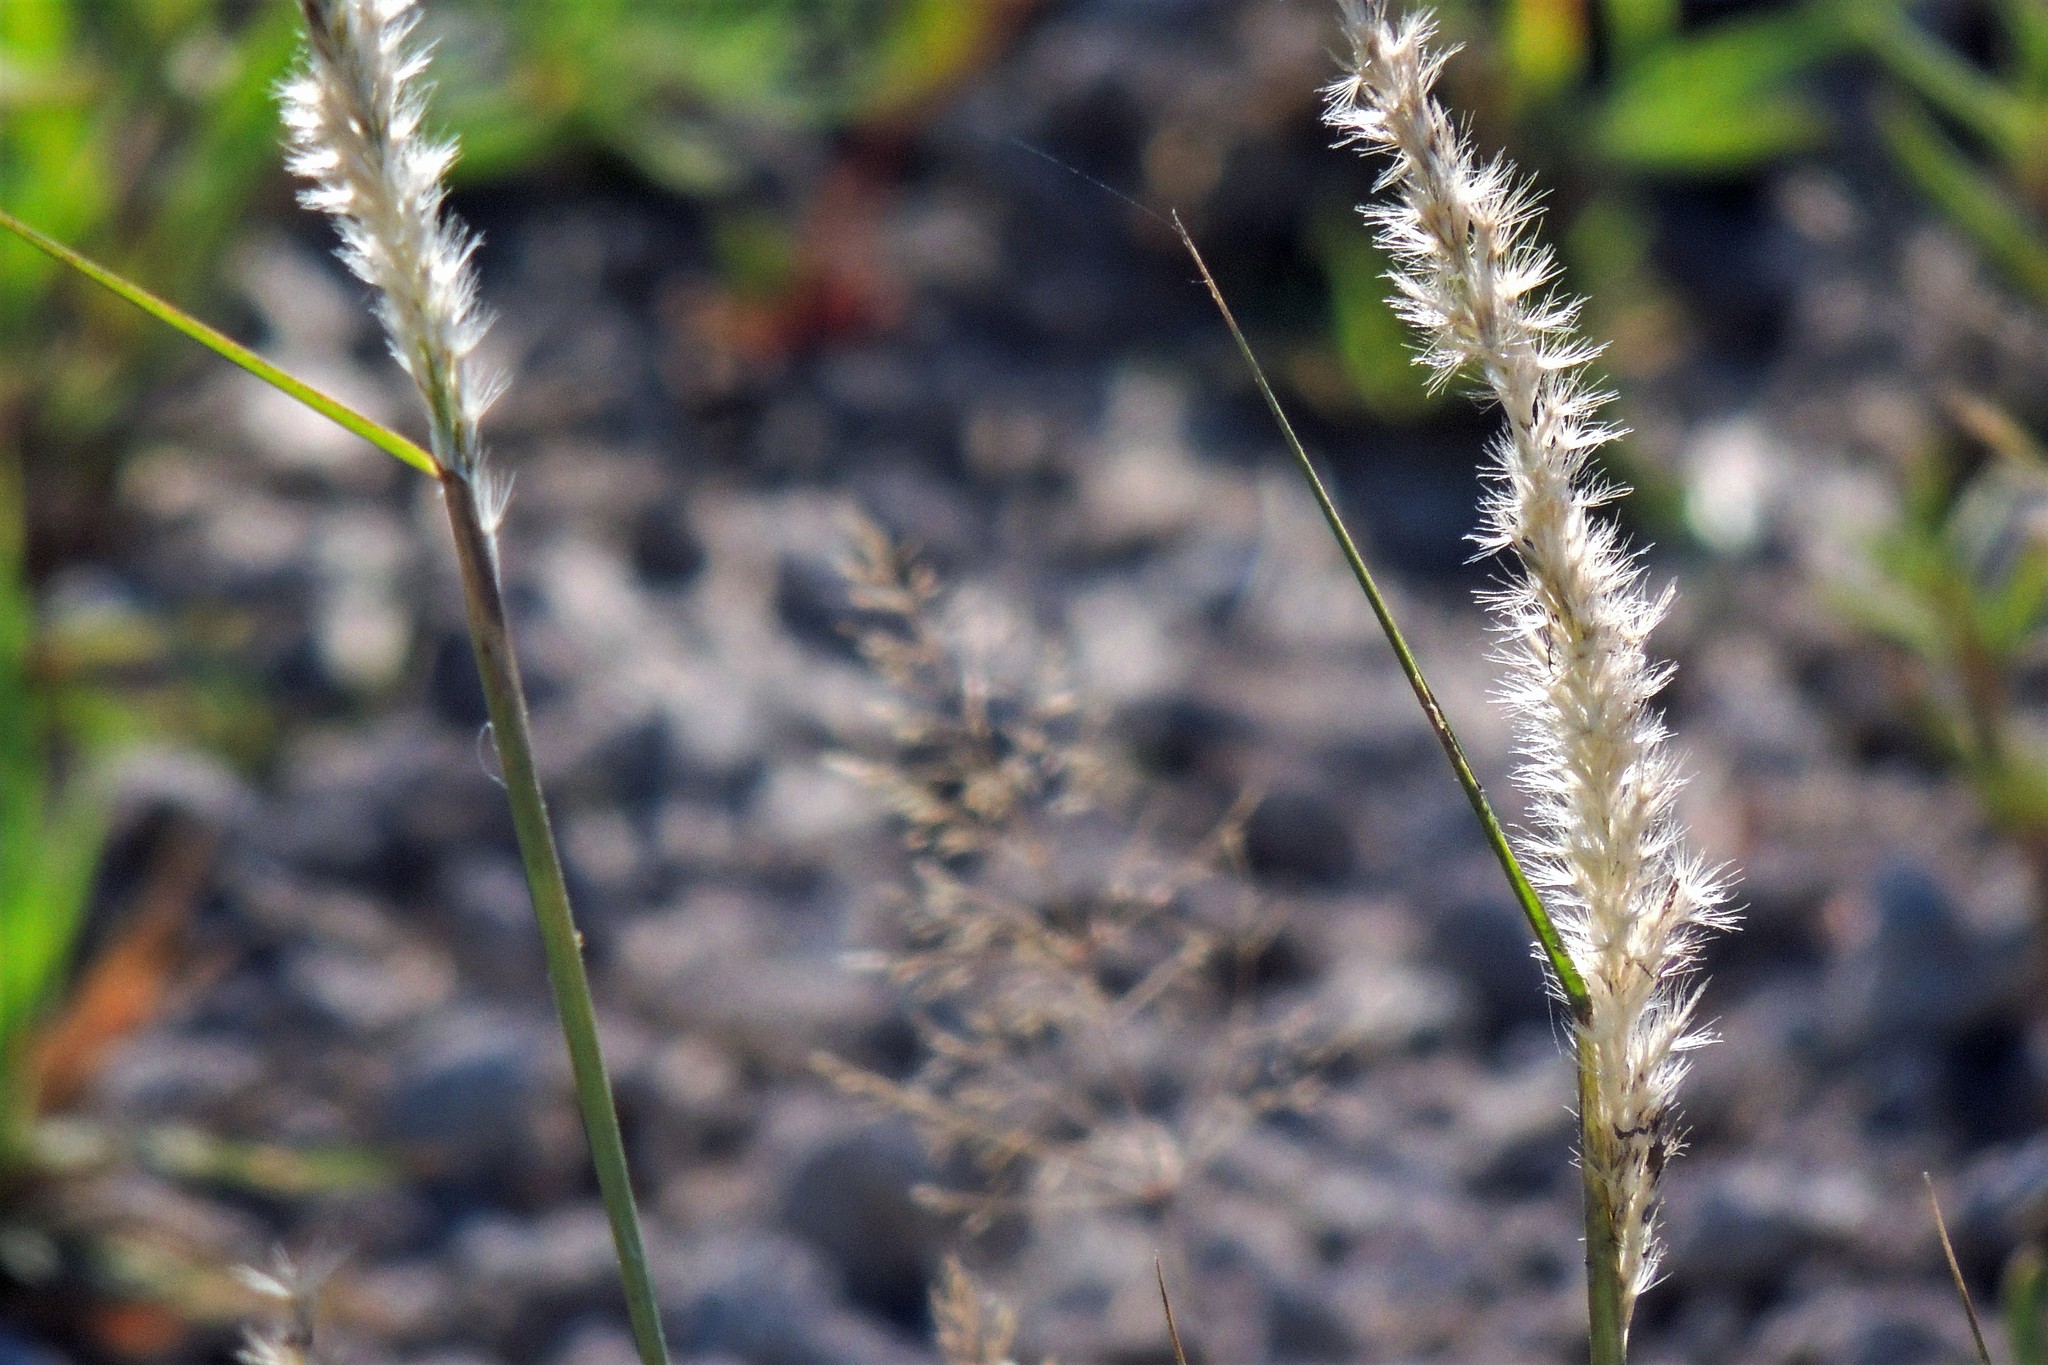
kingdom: Plantae
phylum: Tracheophyta
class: Liliopsida
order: Poales
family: Poaceae
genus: Cenchrus
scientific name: Cenchrus myosuroides
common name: Big sandbur
